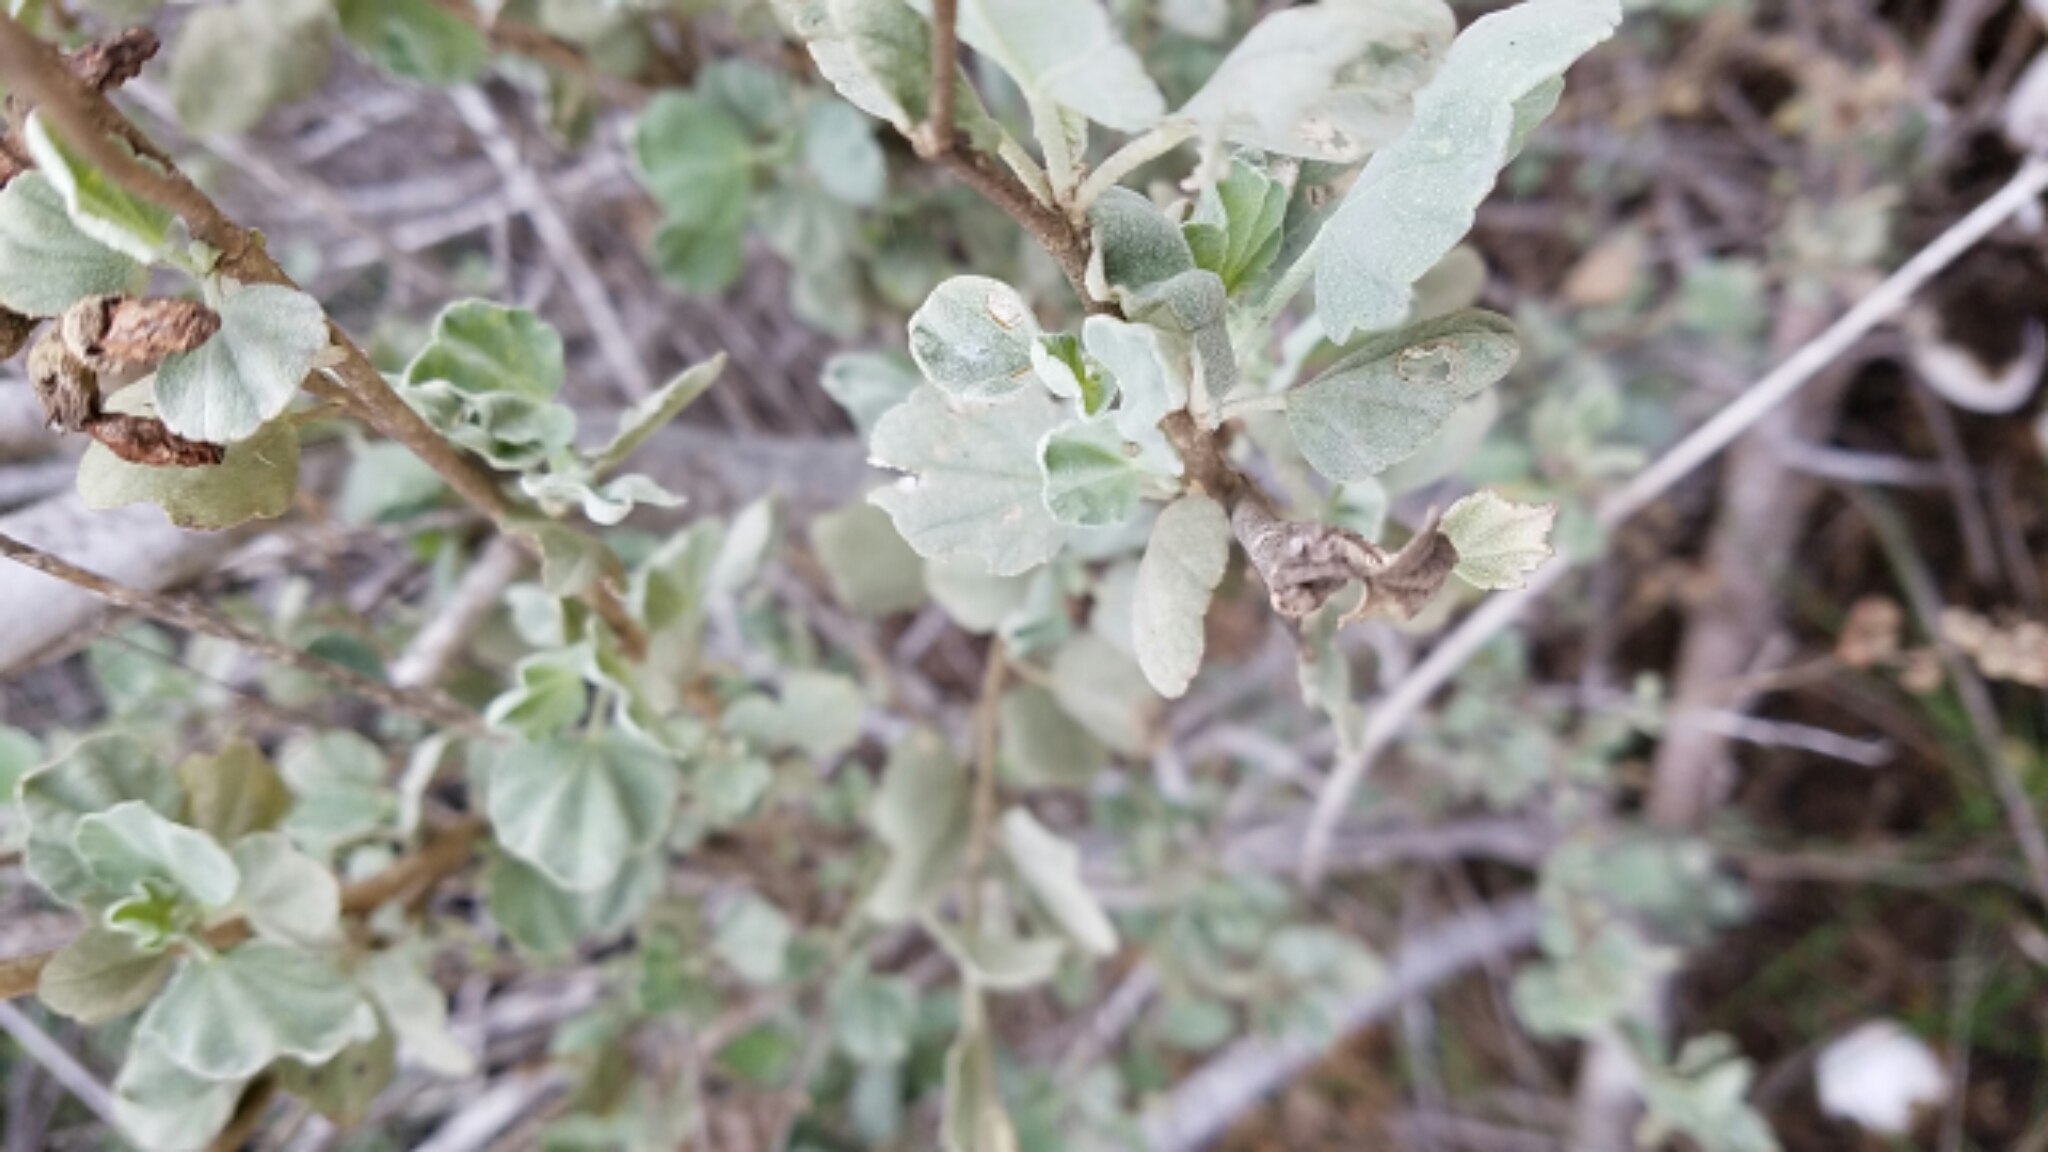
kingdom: Plantae
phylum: Tracheophyta
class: Magnoliopsida
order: Malvales
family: Malvaceae
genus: Malacothamnus
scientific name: Malacothamnus fasciculatus
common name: Sant cruz island bush-mallow
